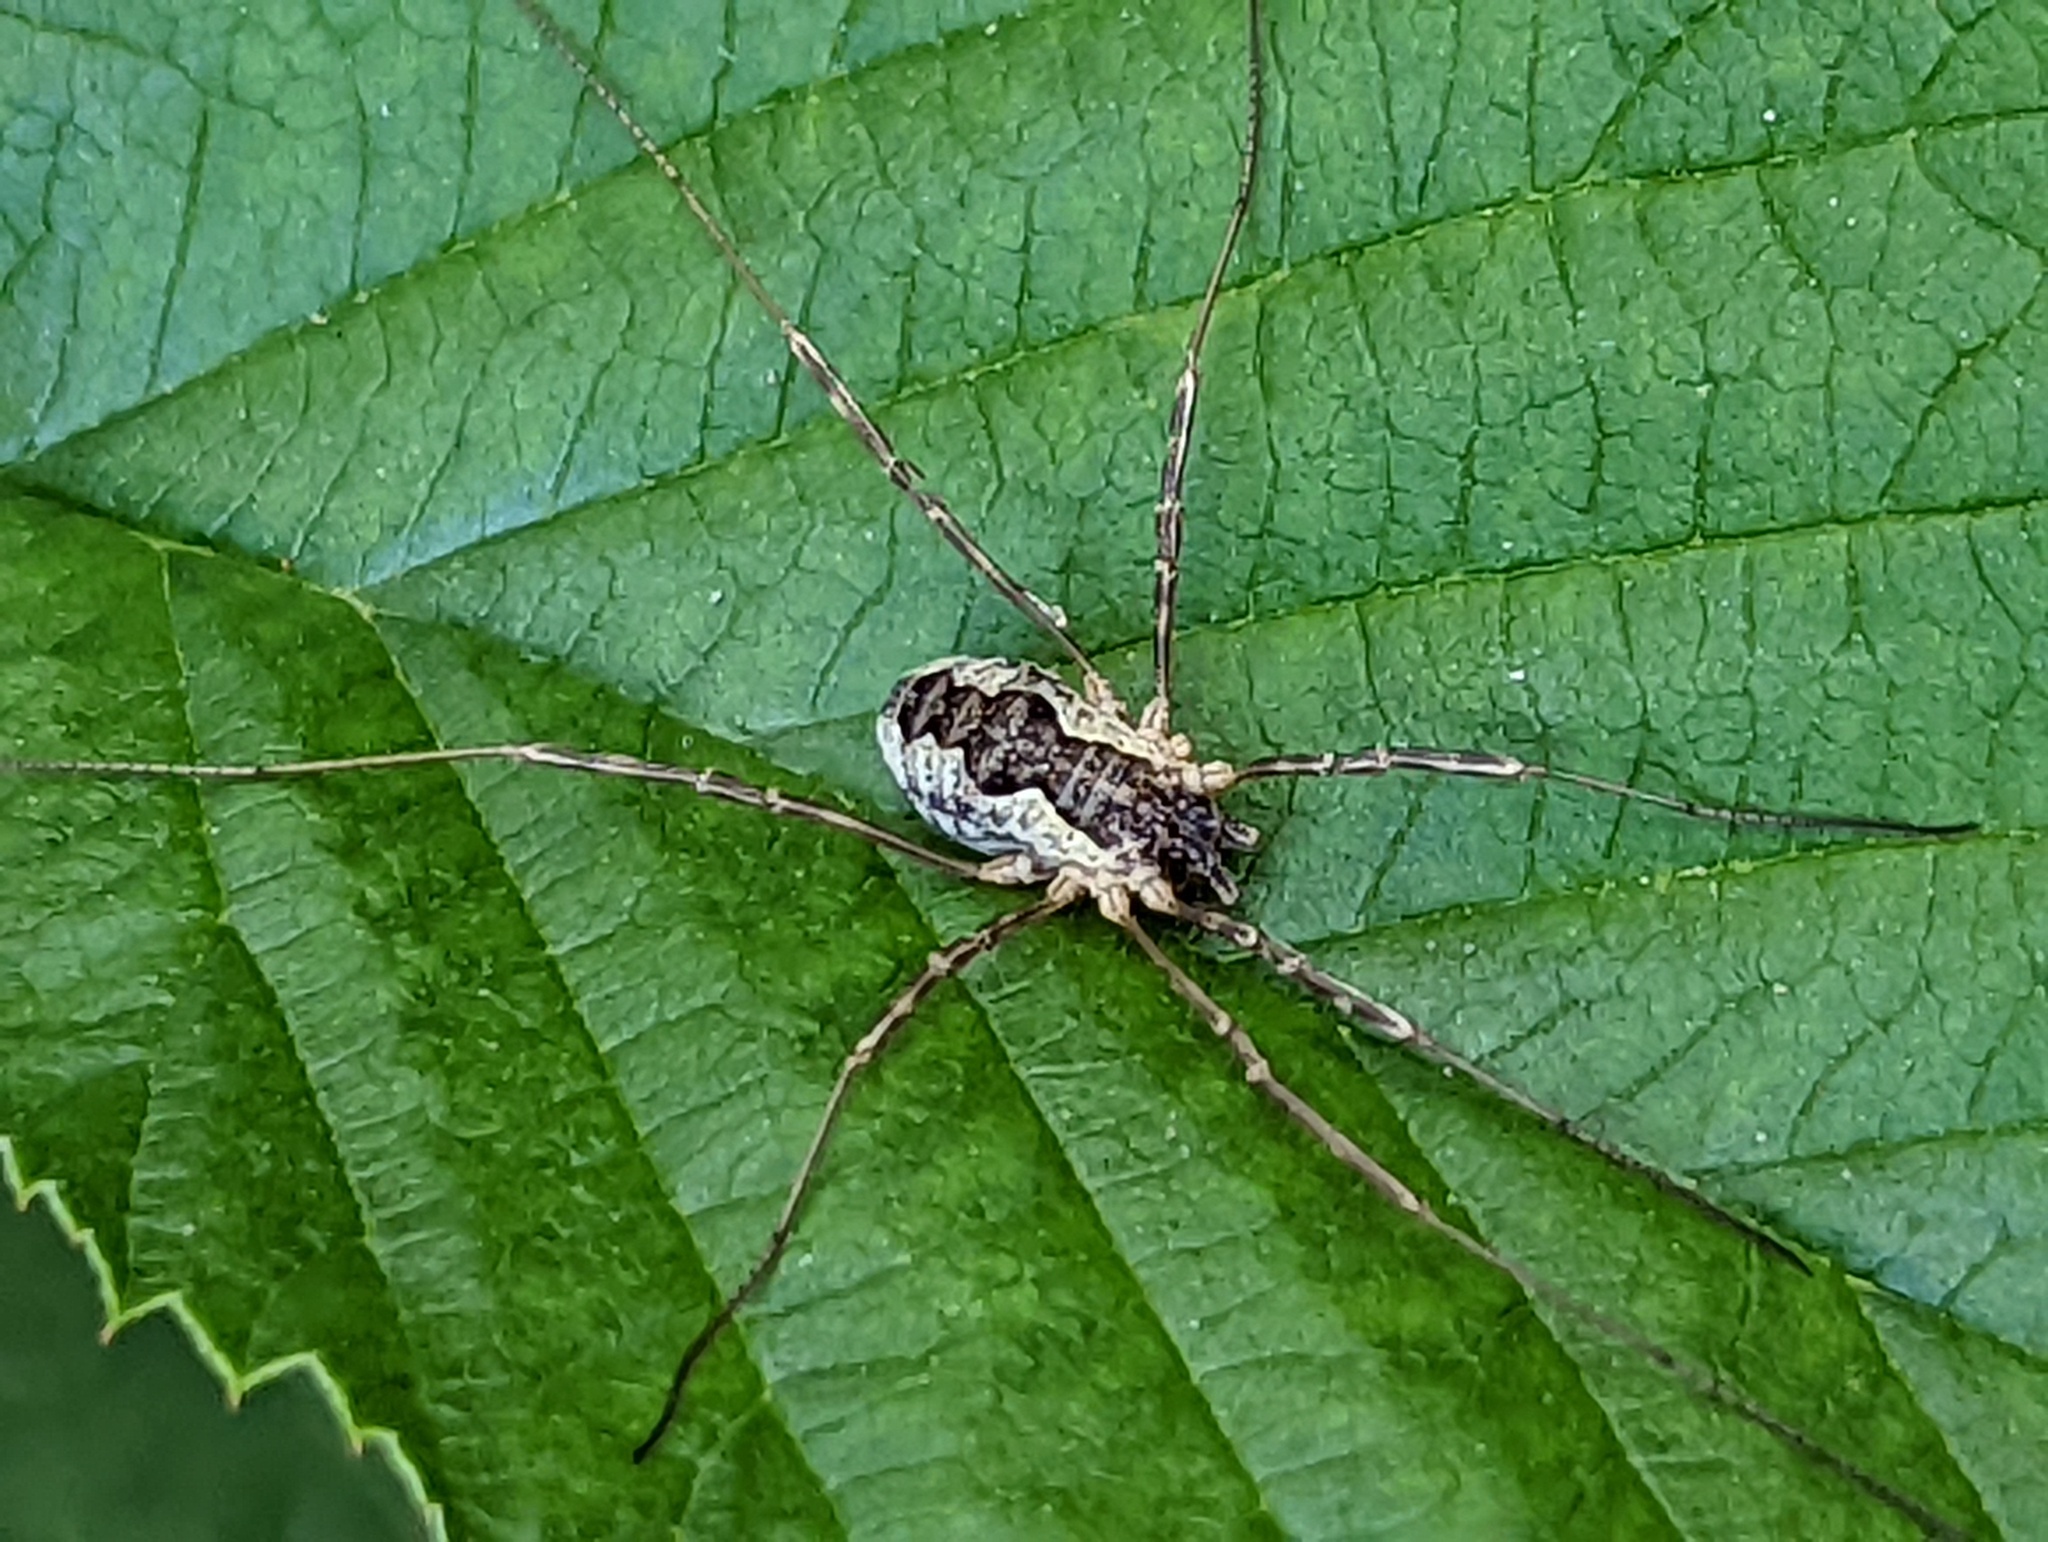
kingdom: Animalia
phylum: Arthropoda
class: Arachnida
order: Opiliones
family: Phalangiidae
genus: Mitopus
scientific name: Mitopus morio
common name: Saddleback harvestman
